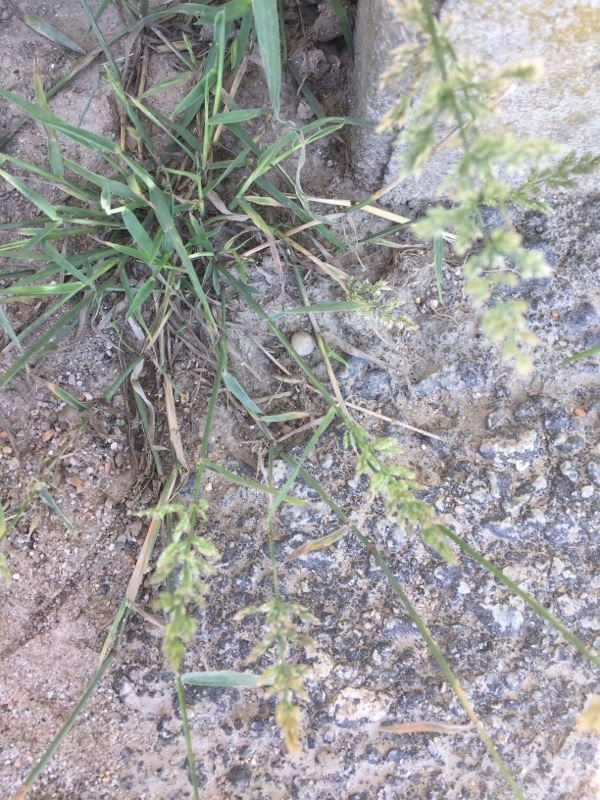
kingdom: Plantae
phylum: Tracheophyta
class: Liliopsida
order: Poales
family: Poaceae
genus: Polypogon
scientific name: Polypogon viridis
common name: Water bent
